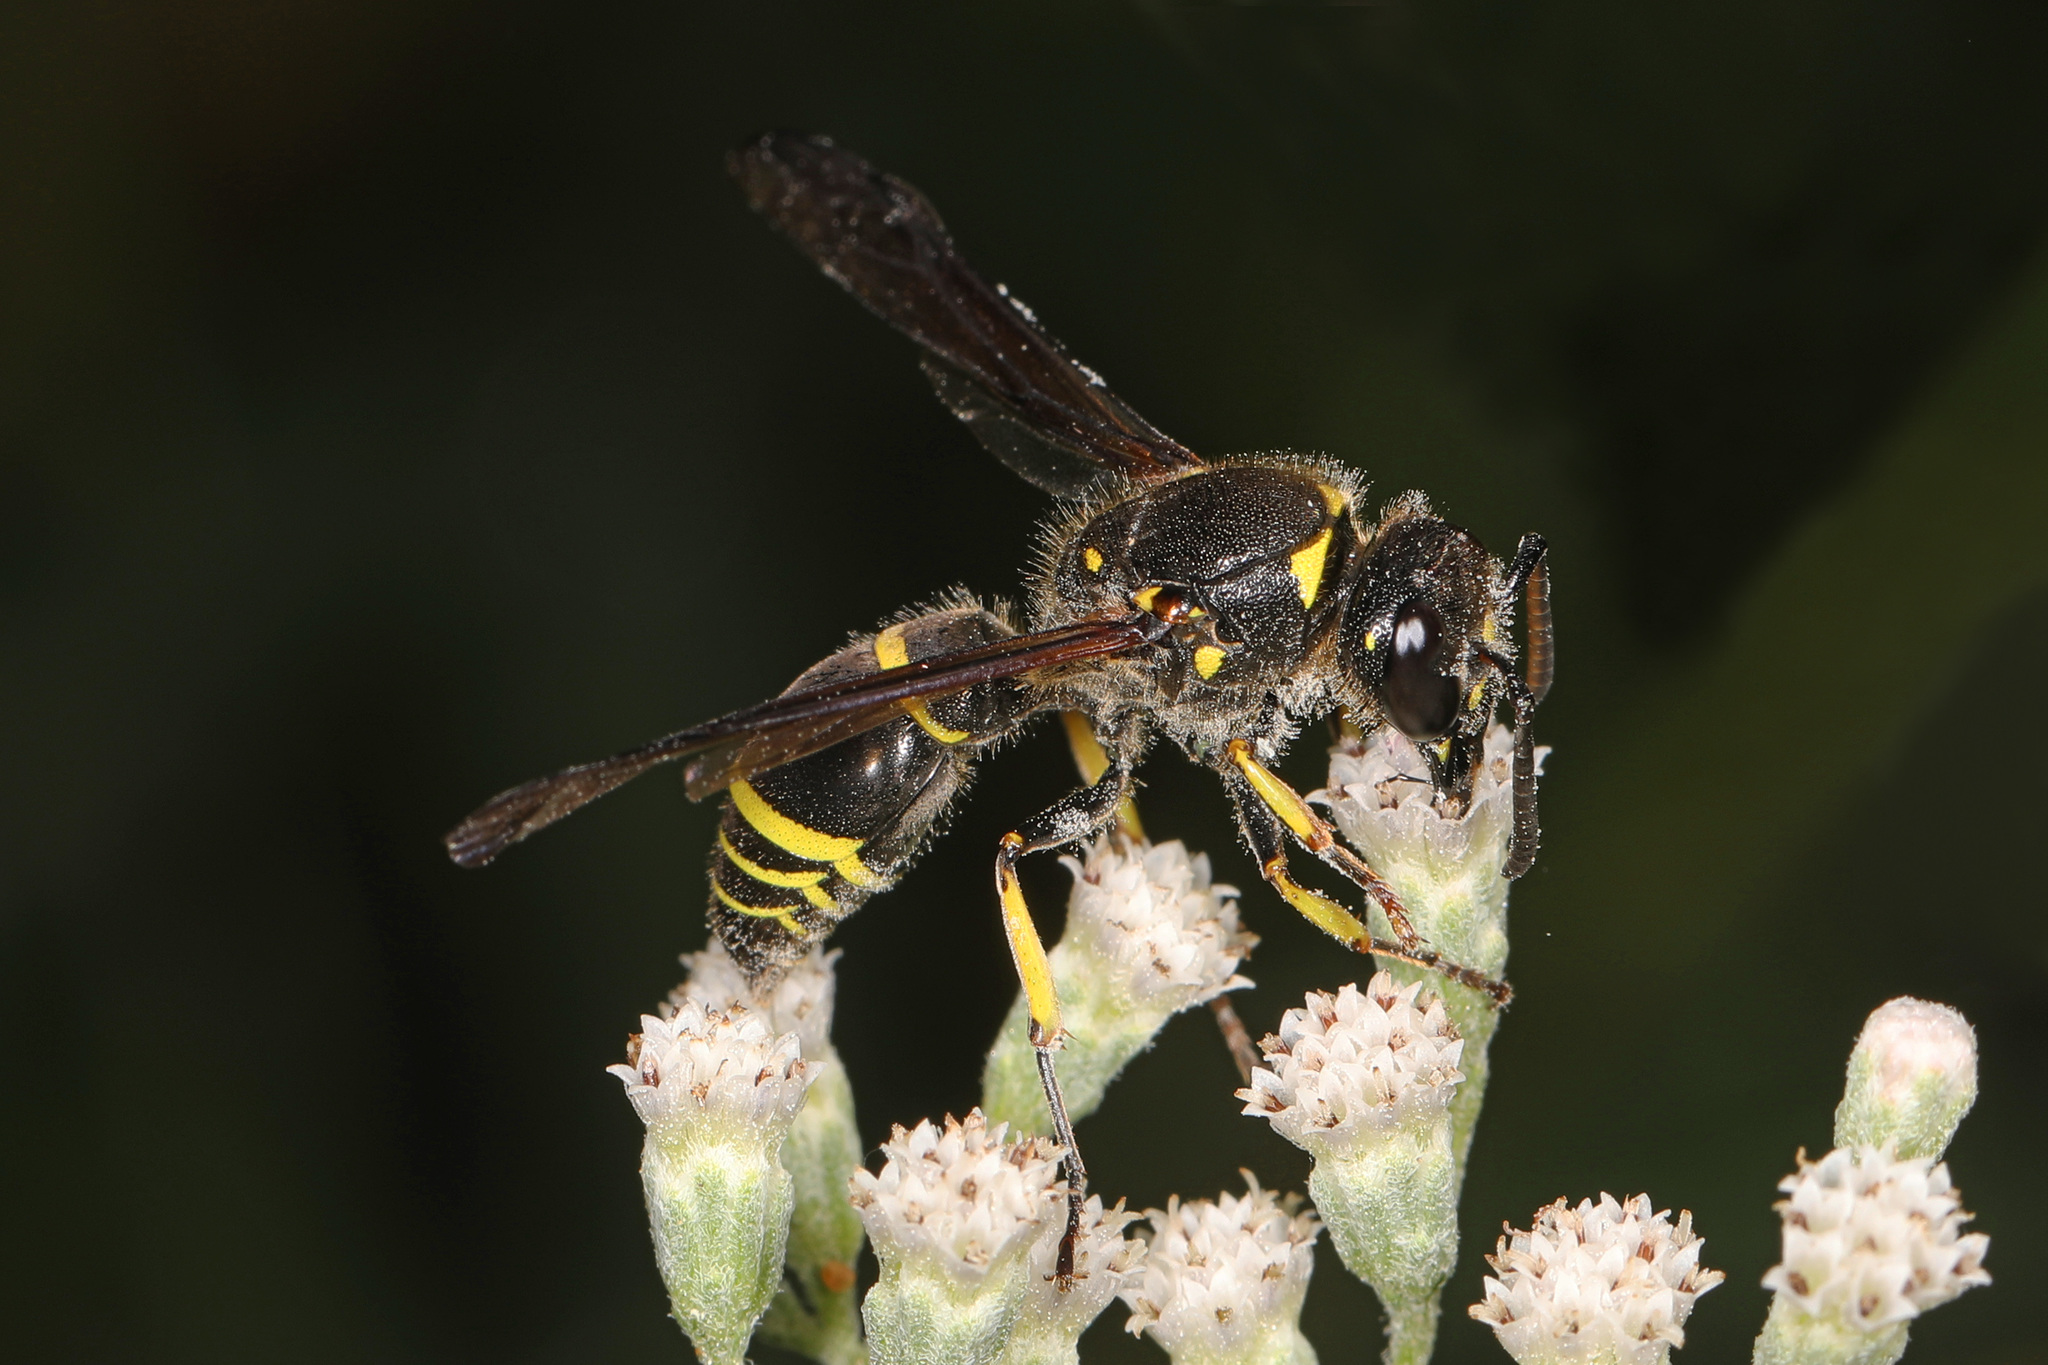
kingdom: Animalia
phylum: Arthropoda
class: Insecta
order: Hymenoptera
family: Vespidae
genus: Ancistrocerus
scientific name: Ancistrocerus
